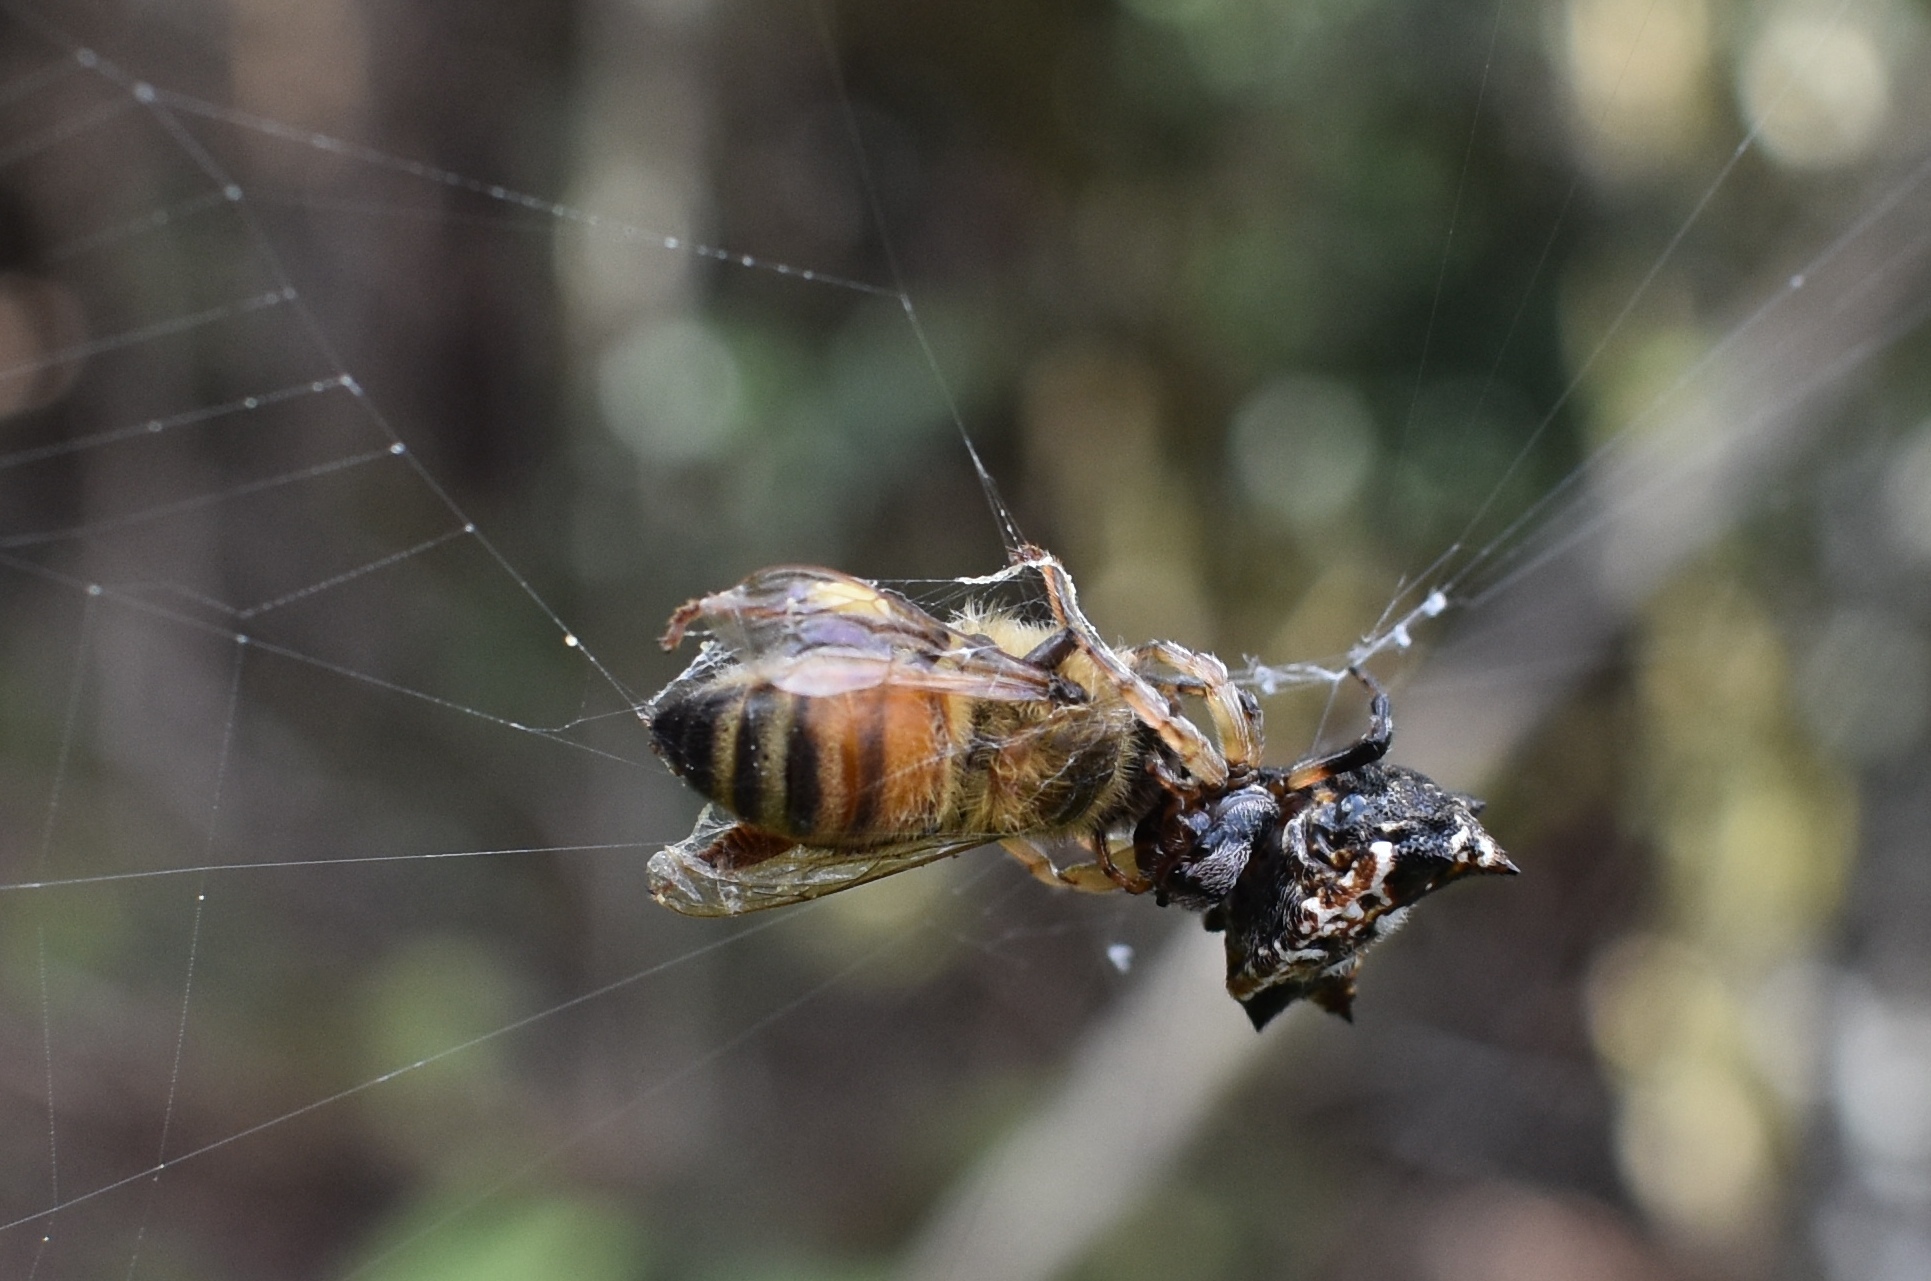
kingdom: Animalia
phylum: Arthropoda
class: Arachnida
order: Araneae
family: Araneidae
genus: Thelacantha
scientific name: Thelacantha brevispina
